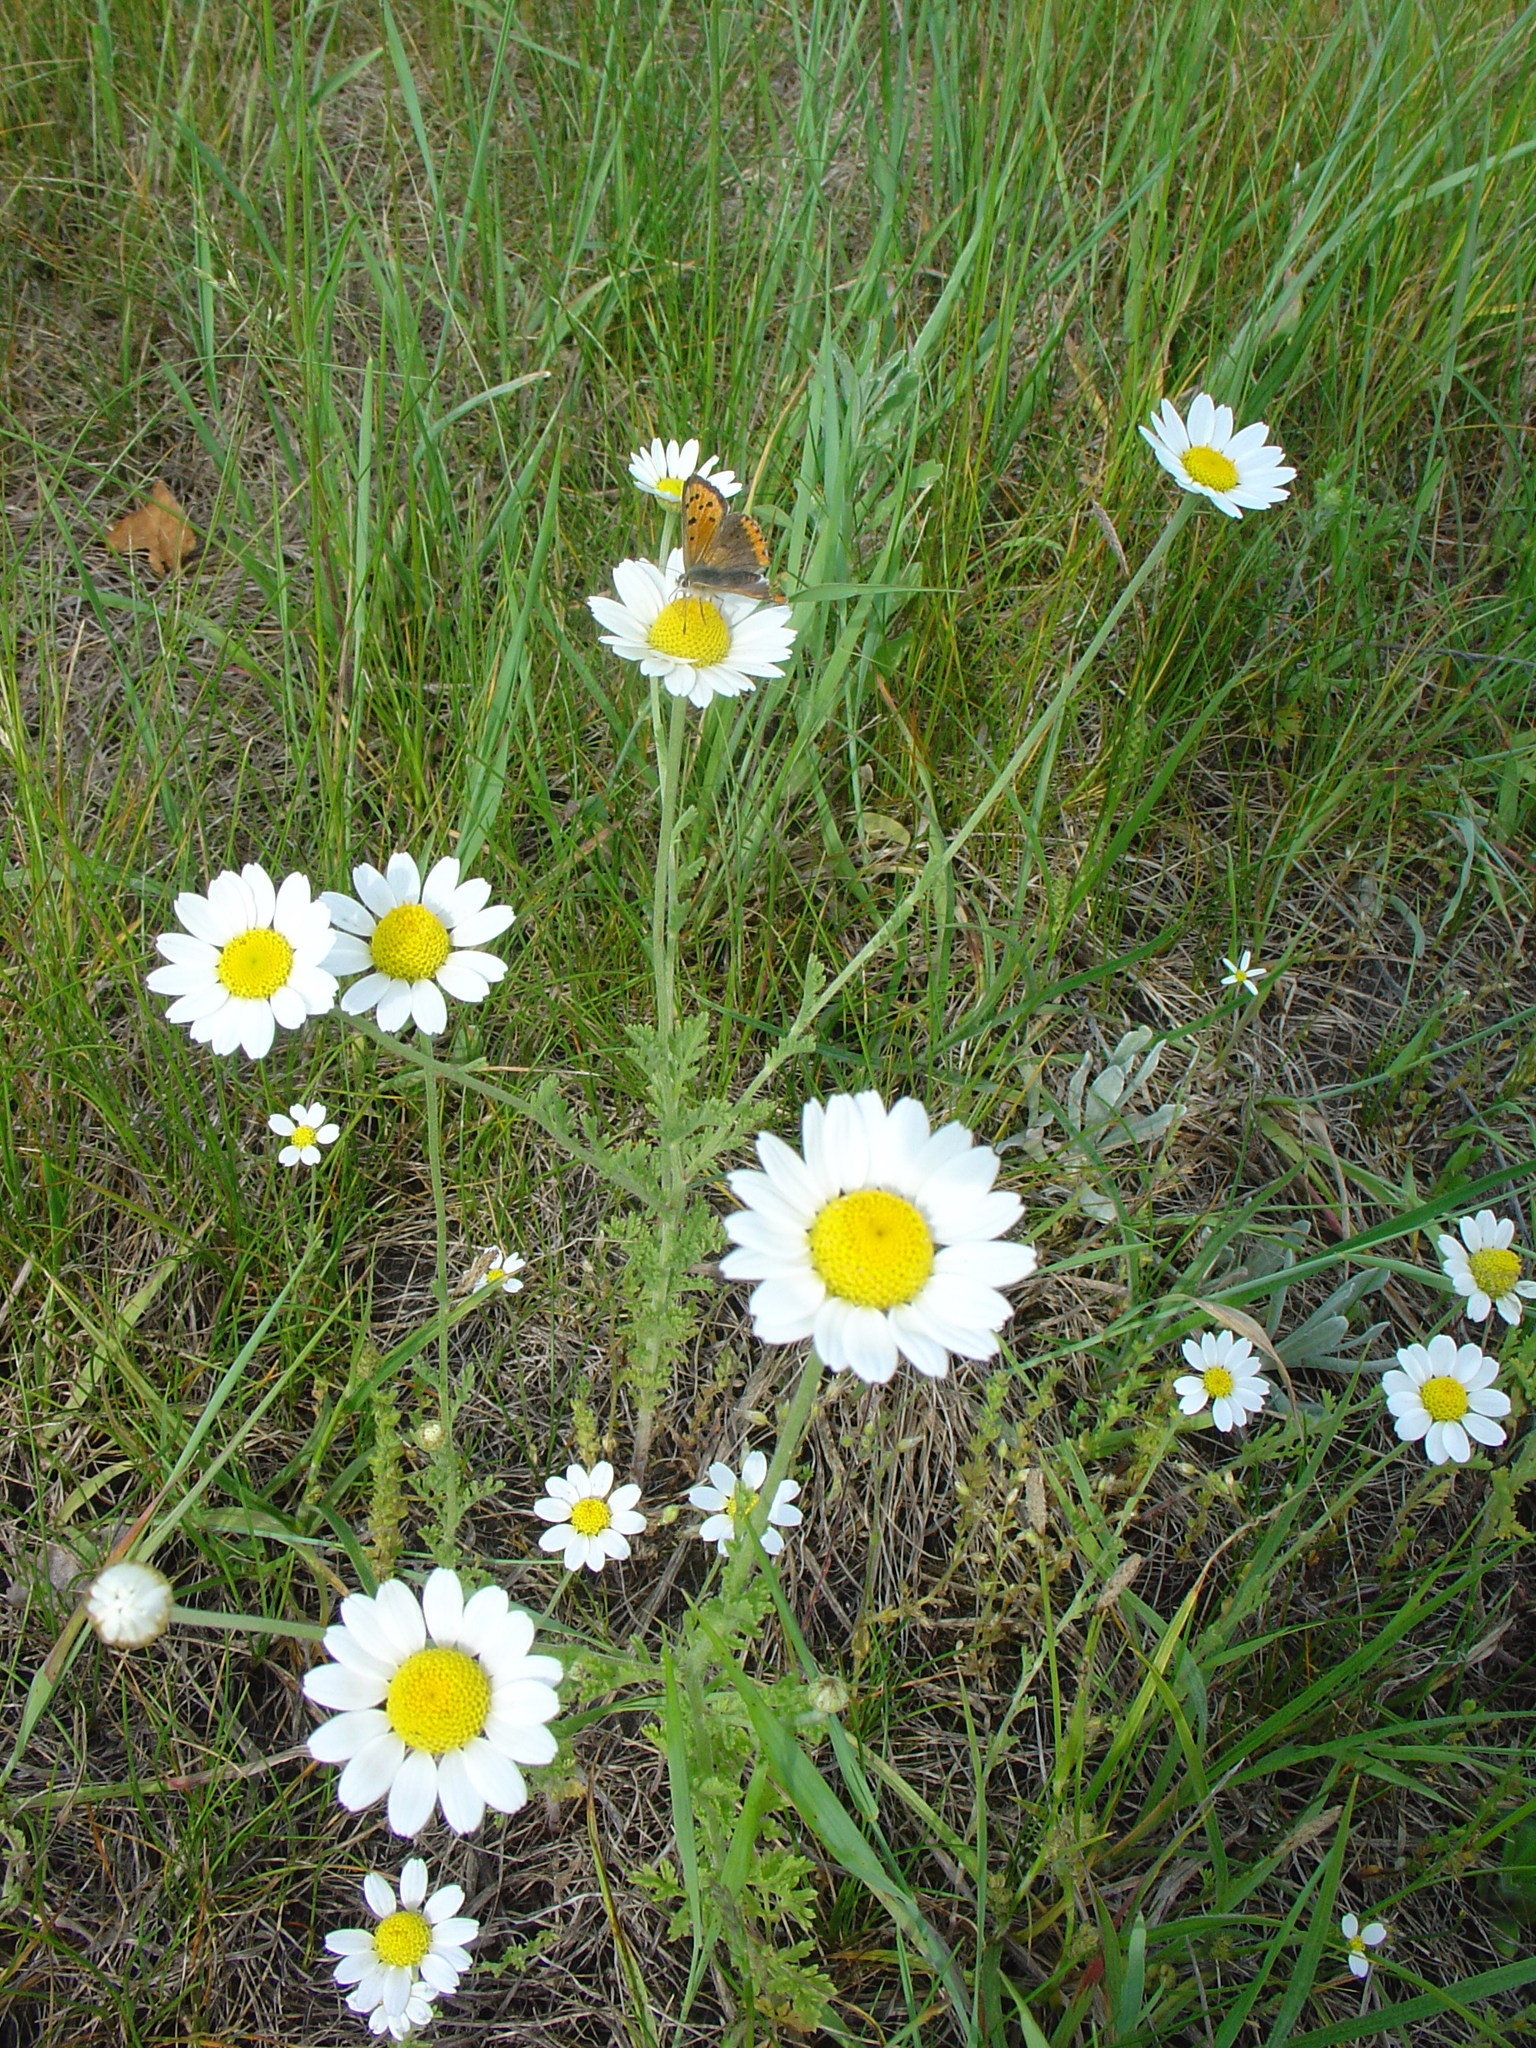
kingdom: Plantae
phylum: Tracheophyta
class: Magnoliopsida
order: Asterales
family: Asteraceae
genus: Anthemis
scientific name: Anthemis ruthenica
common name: Eastern chamomile
